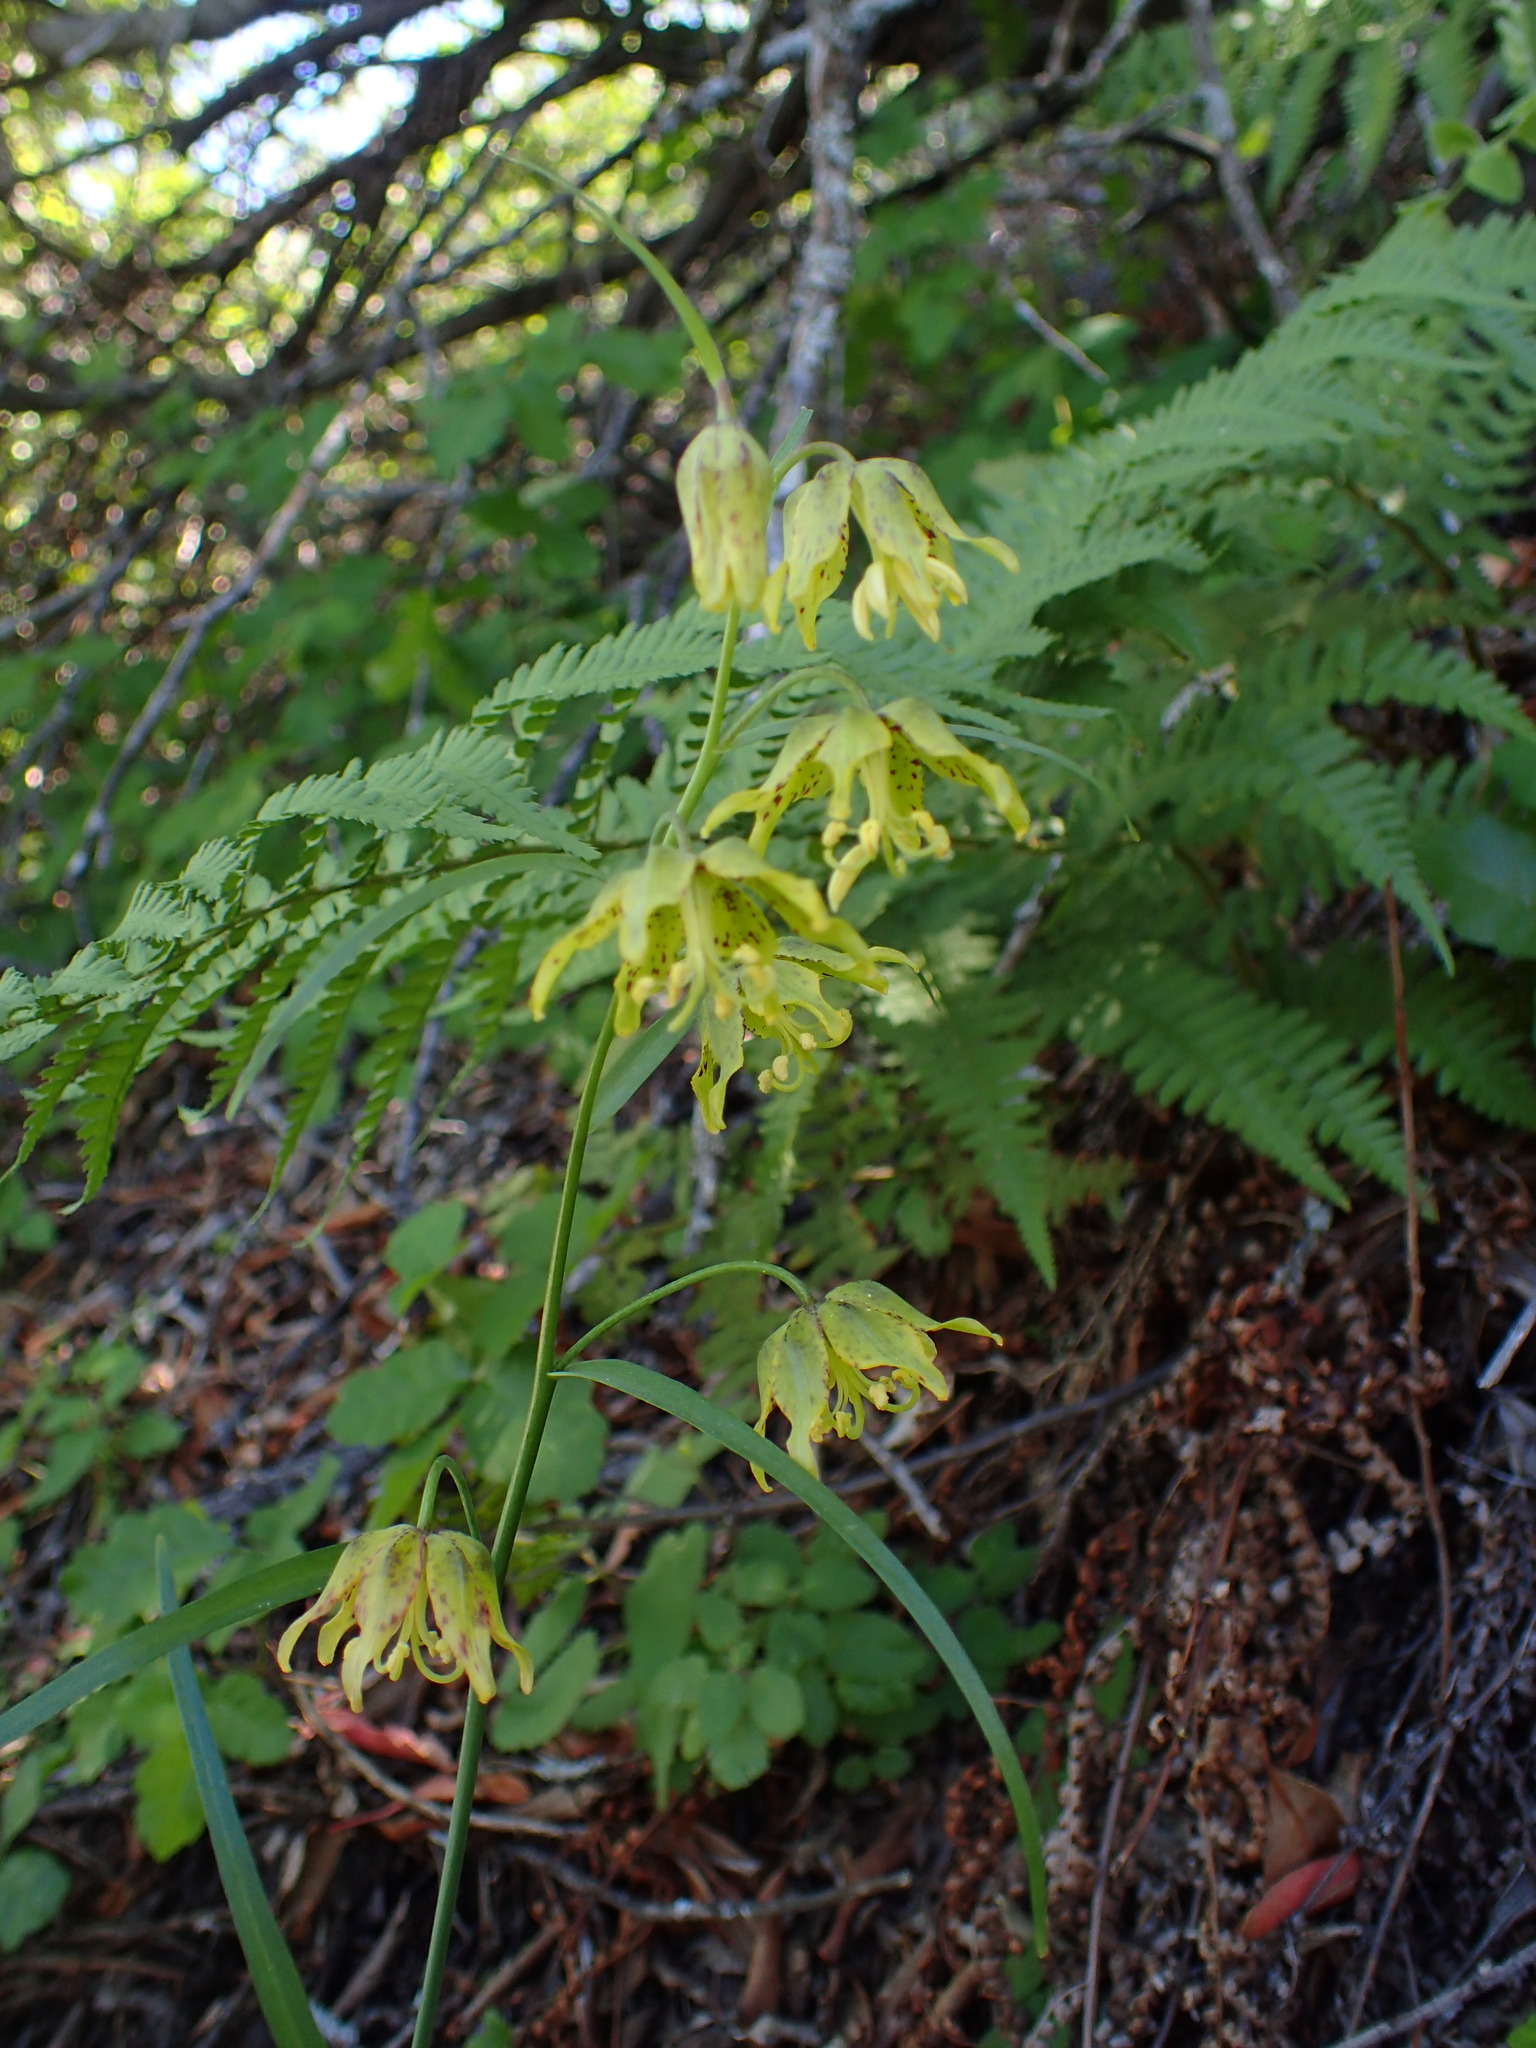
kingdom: Plantae
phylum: Tracheophyta
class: Liliopsida
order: Liliales
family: Liliaceae
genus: Fritillaria
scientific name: Fritillaria ojaiensis
